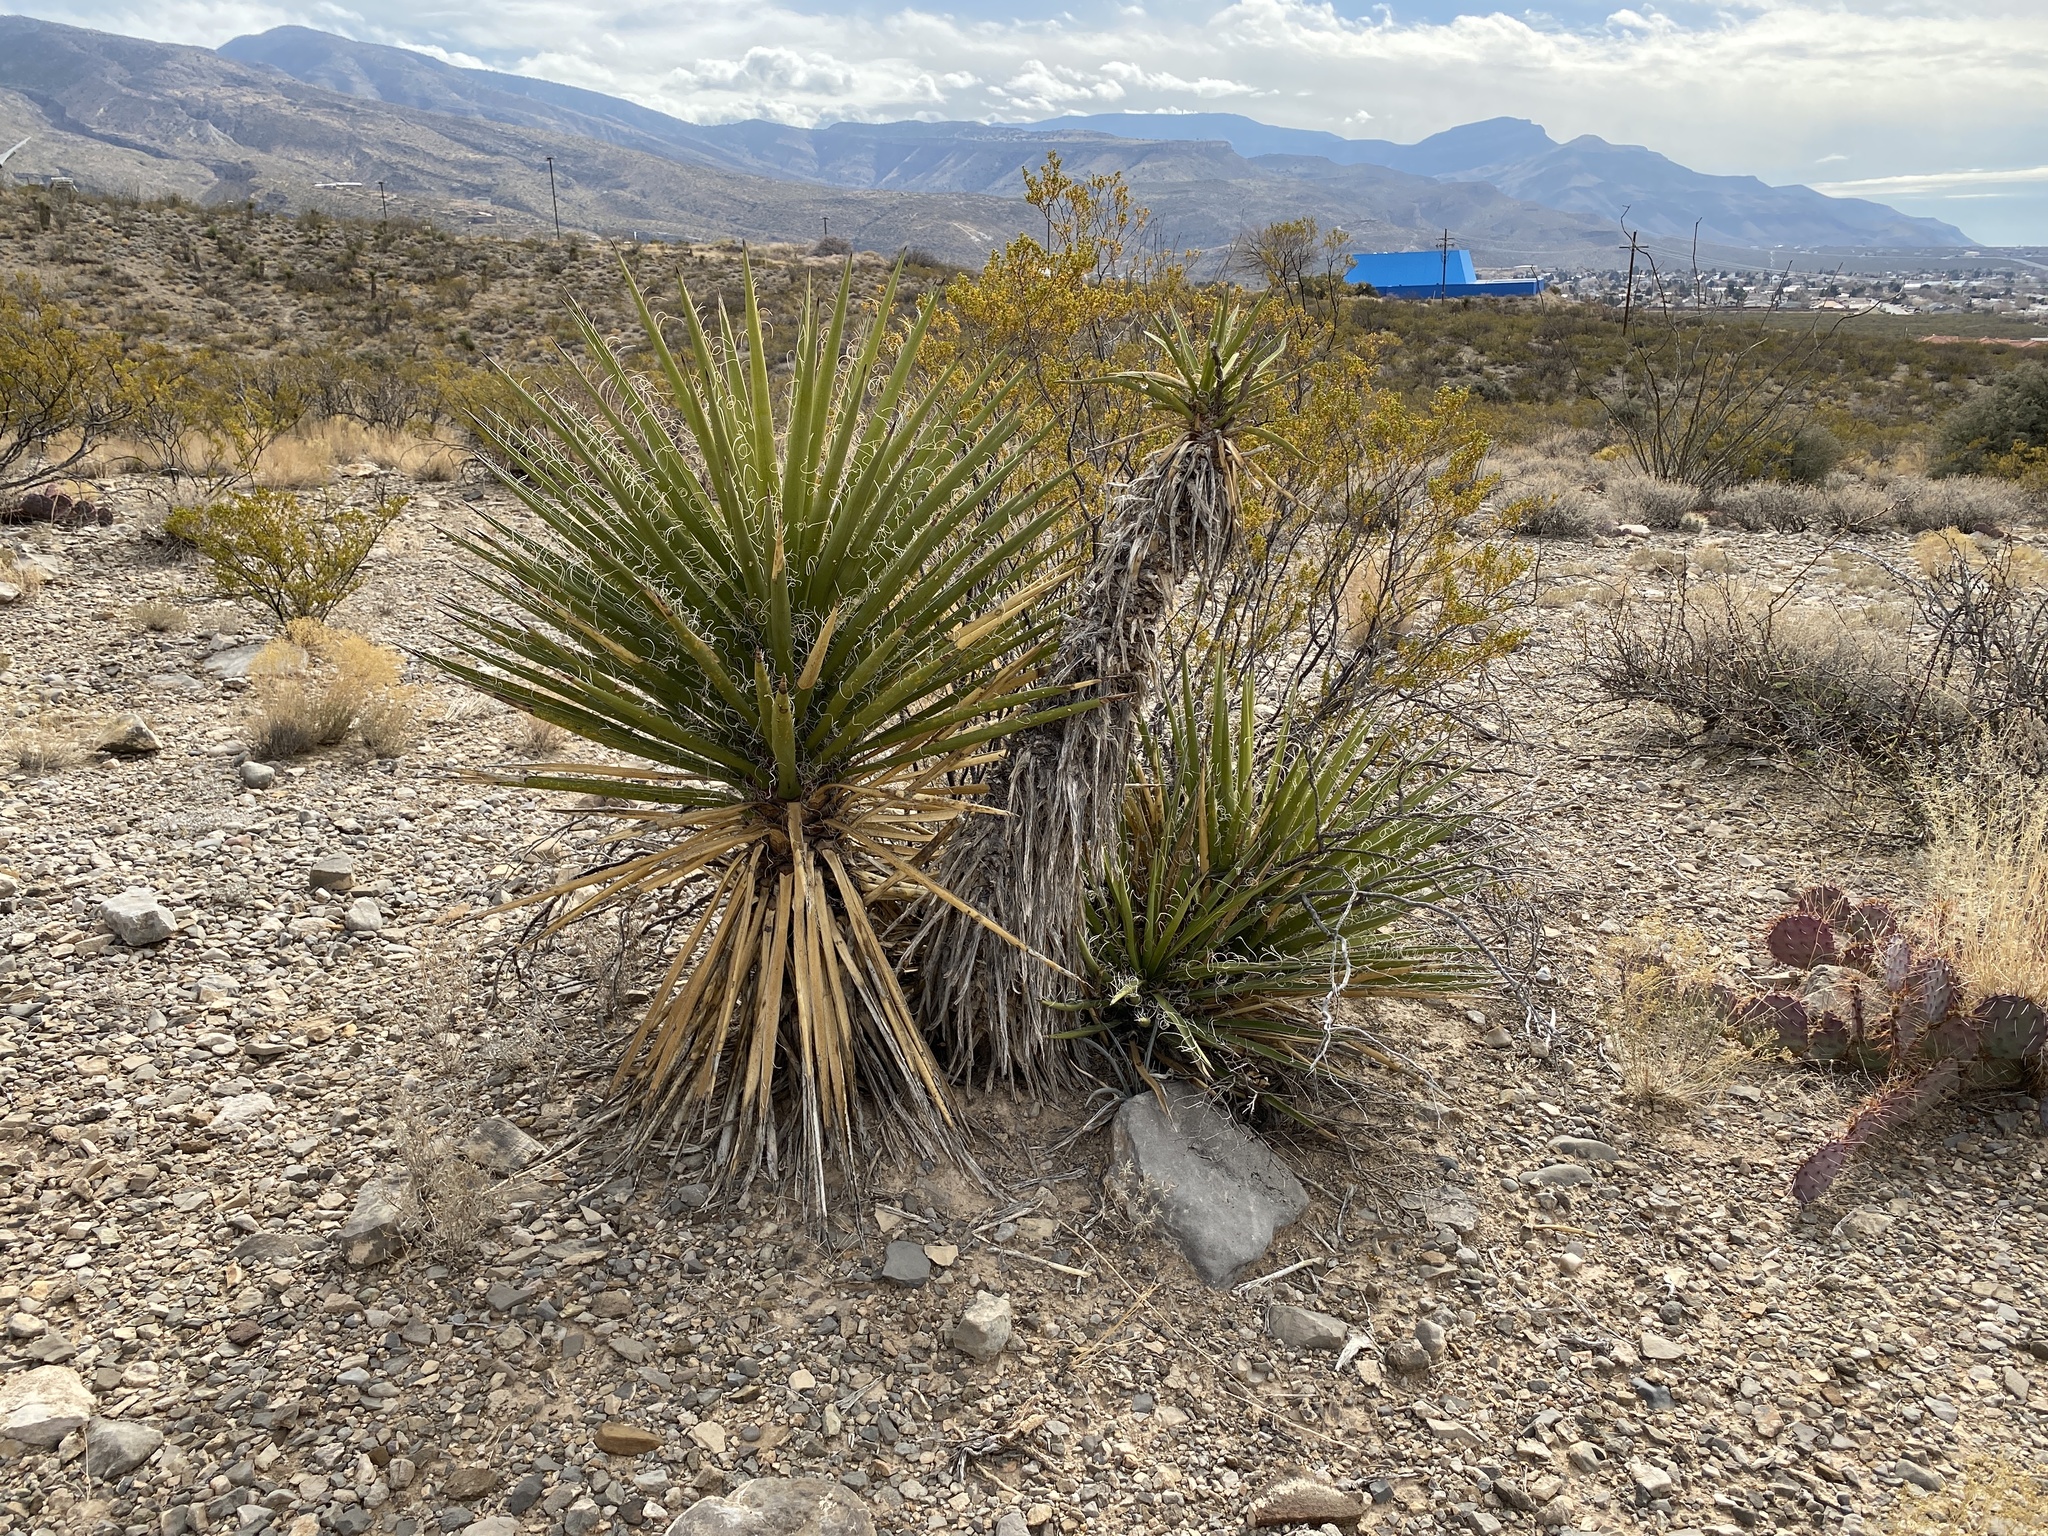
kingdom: Plantae
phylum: Tracheophyta
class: Liliopsida
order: Asparagales
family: Asparagaceae
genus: Yucca
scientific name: Yucca treculiana
